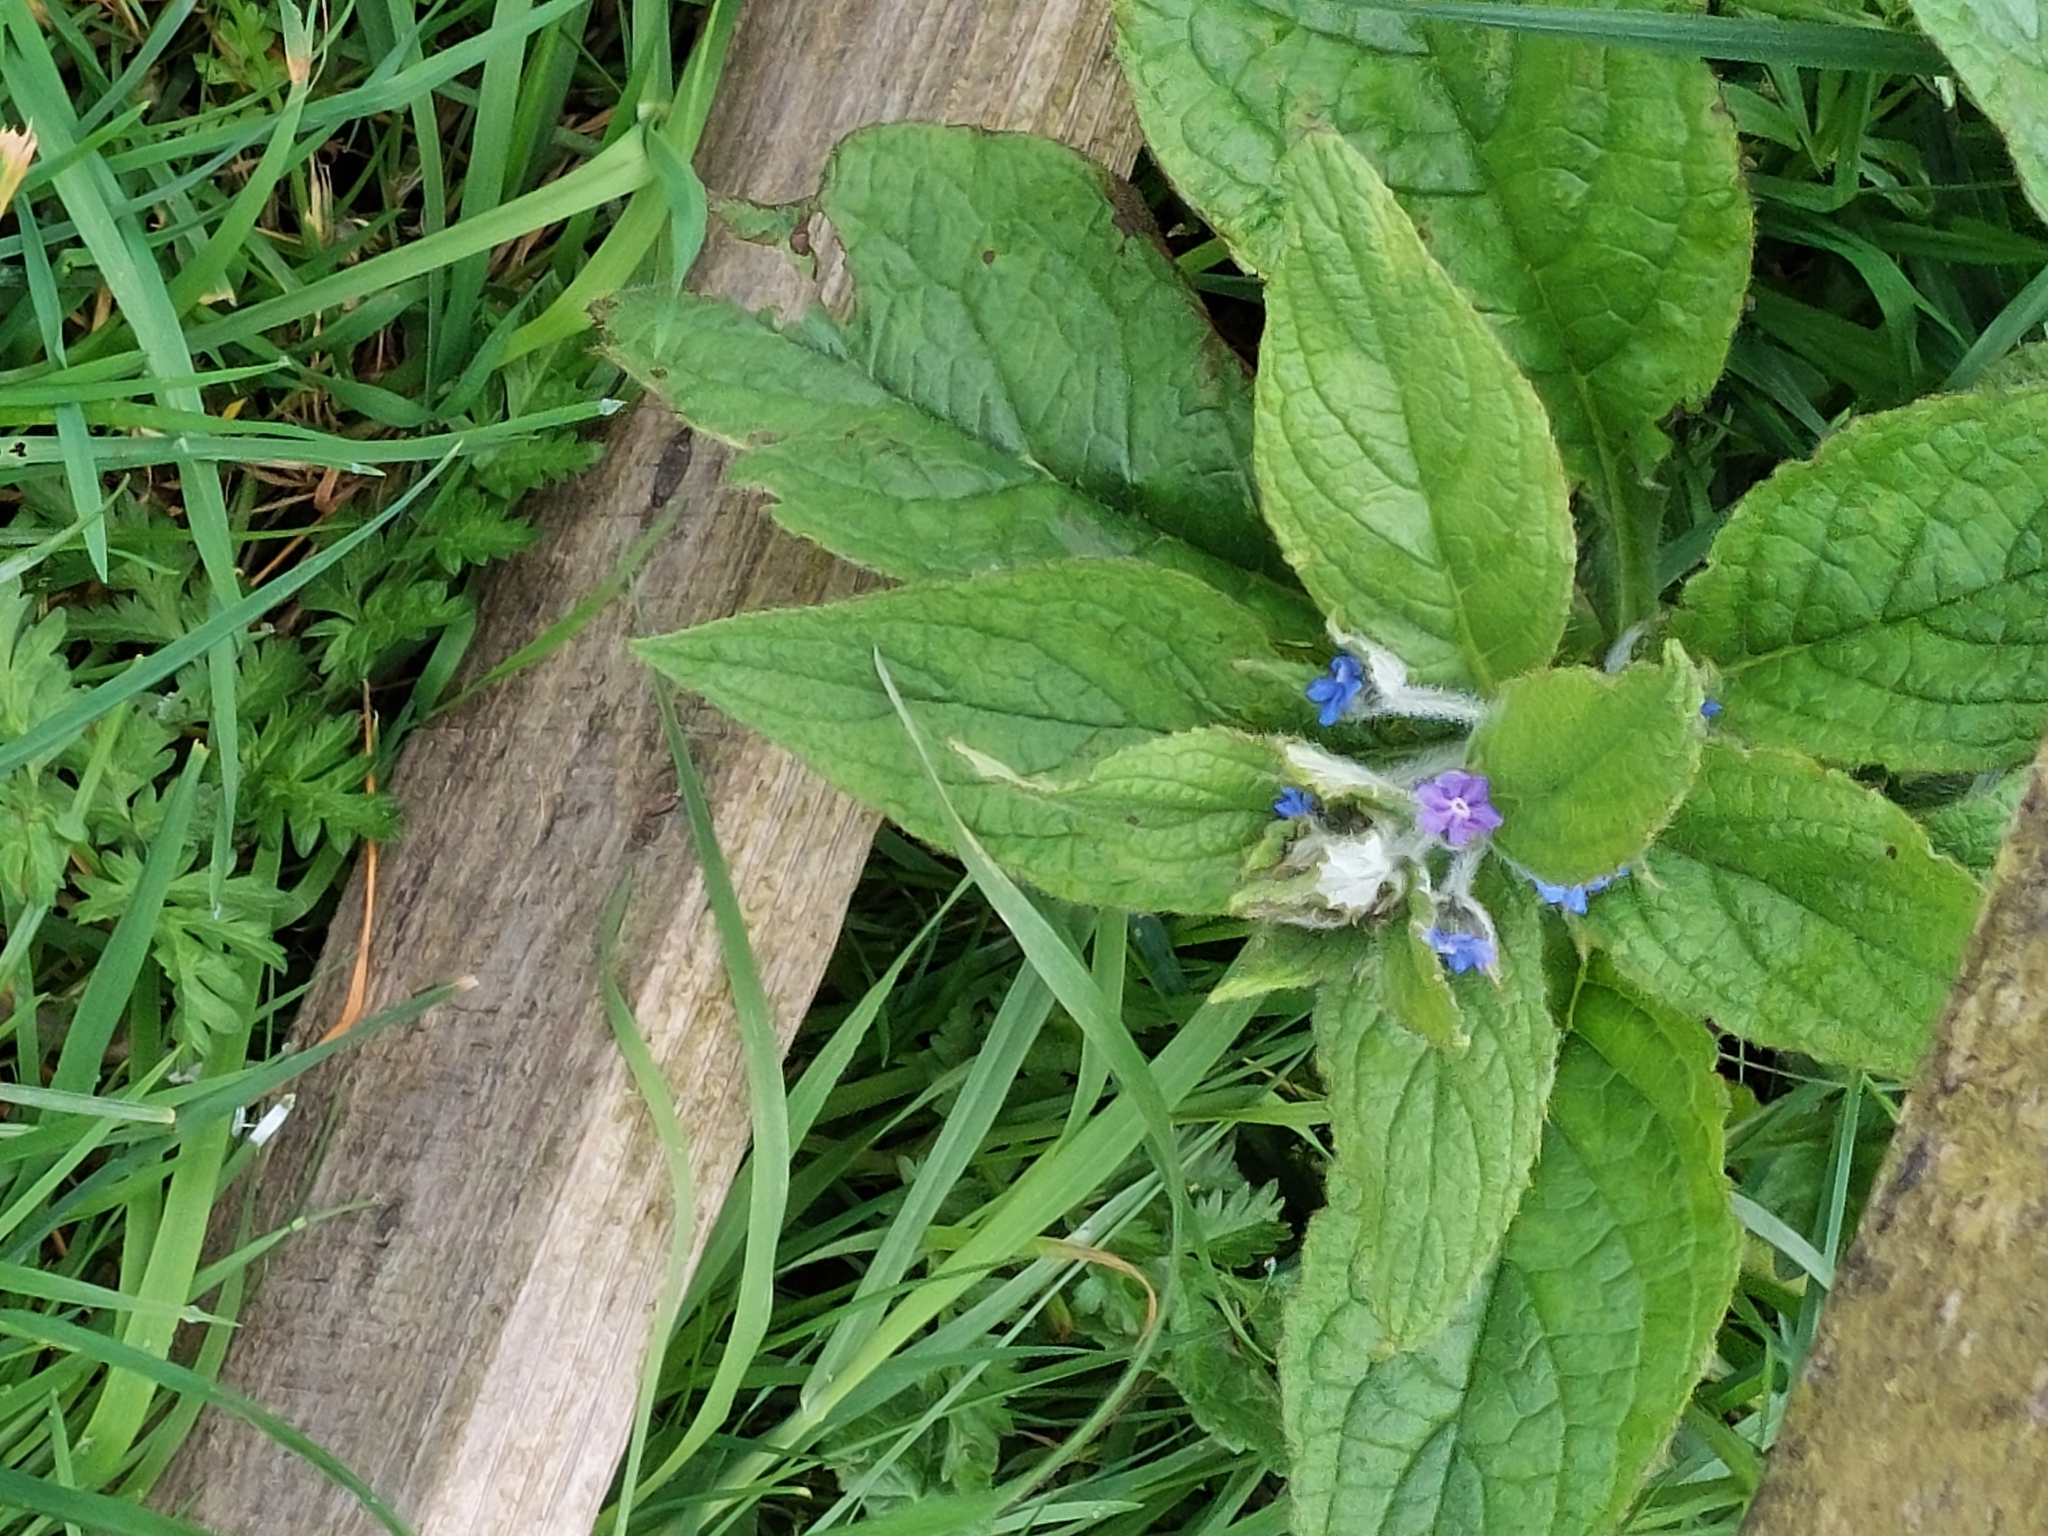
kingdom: Plantae
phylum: Tracheophyta
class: Magnoliopsida
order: Boraginales
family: Boraginaceae
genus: Pentaglottis
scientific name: Pentaglottis sempervirens
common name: Green alkanet
